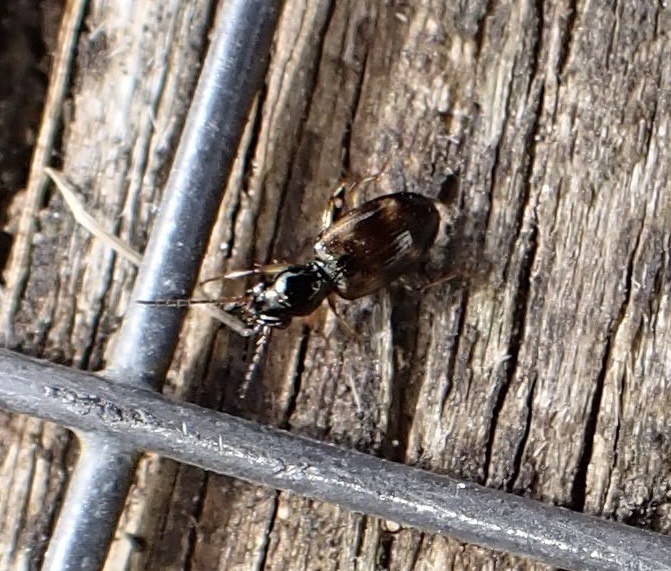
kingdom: Animalia
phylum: Arthropoda
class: Insecta
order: Coleoptera
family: Carabidae
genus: Bembidion
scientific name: Bembidion articulatum
